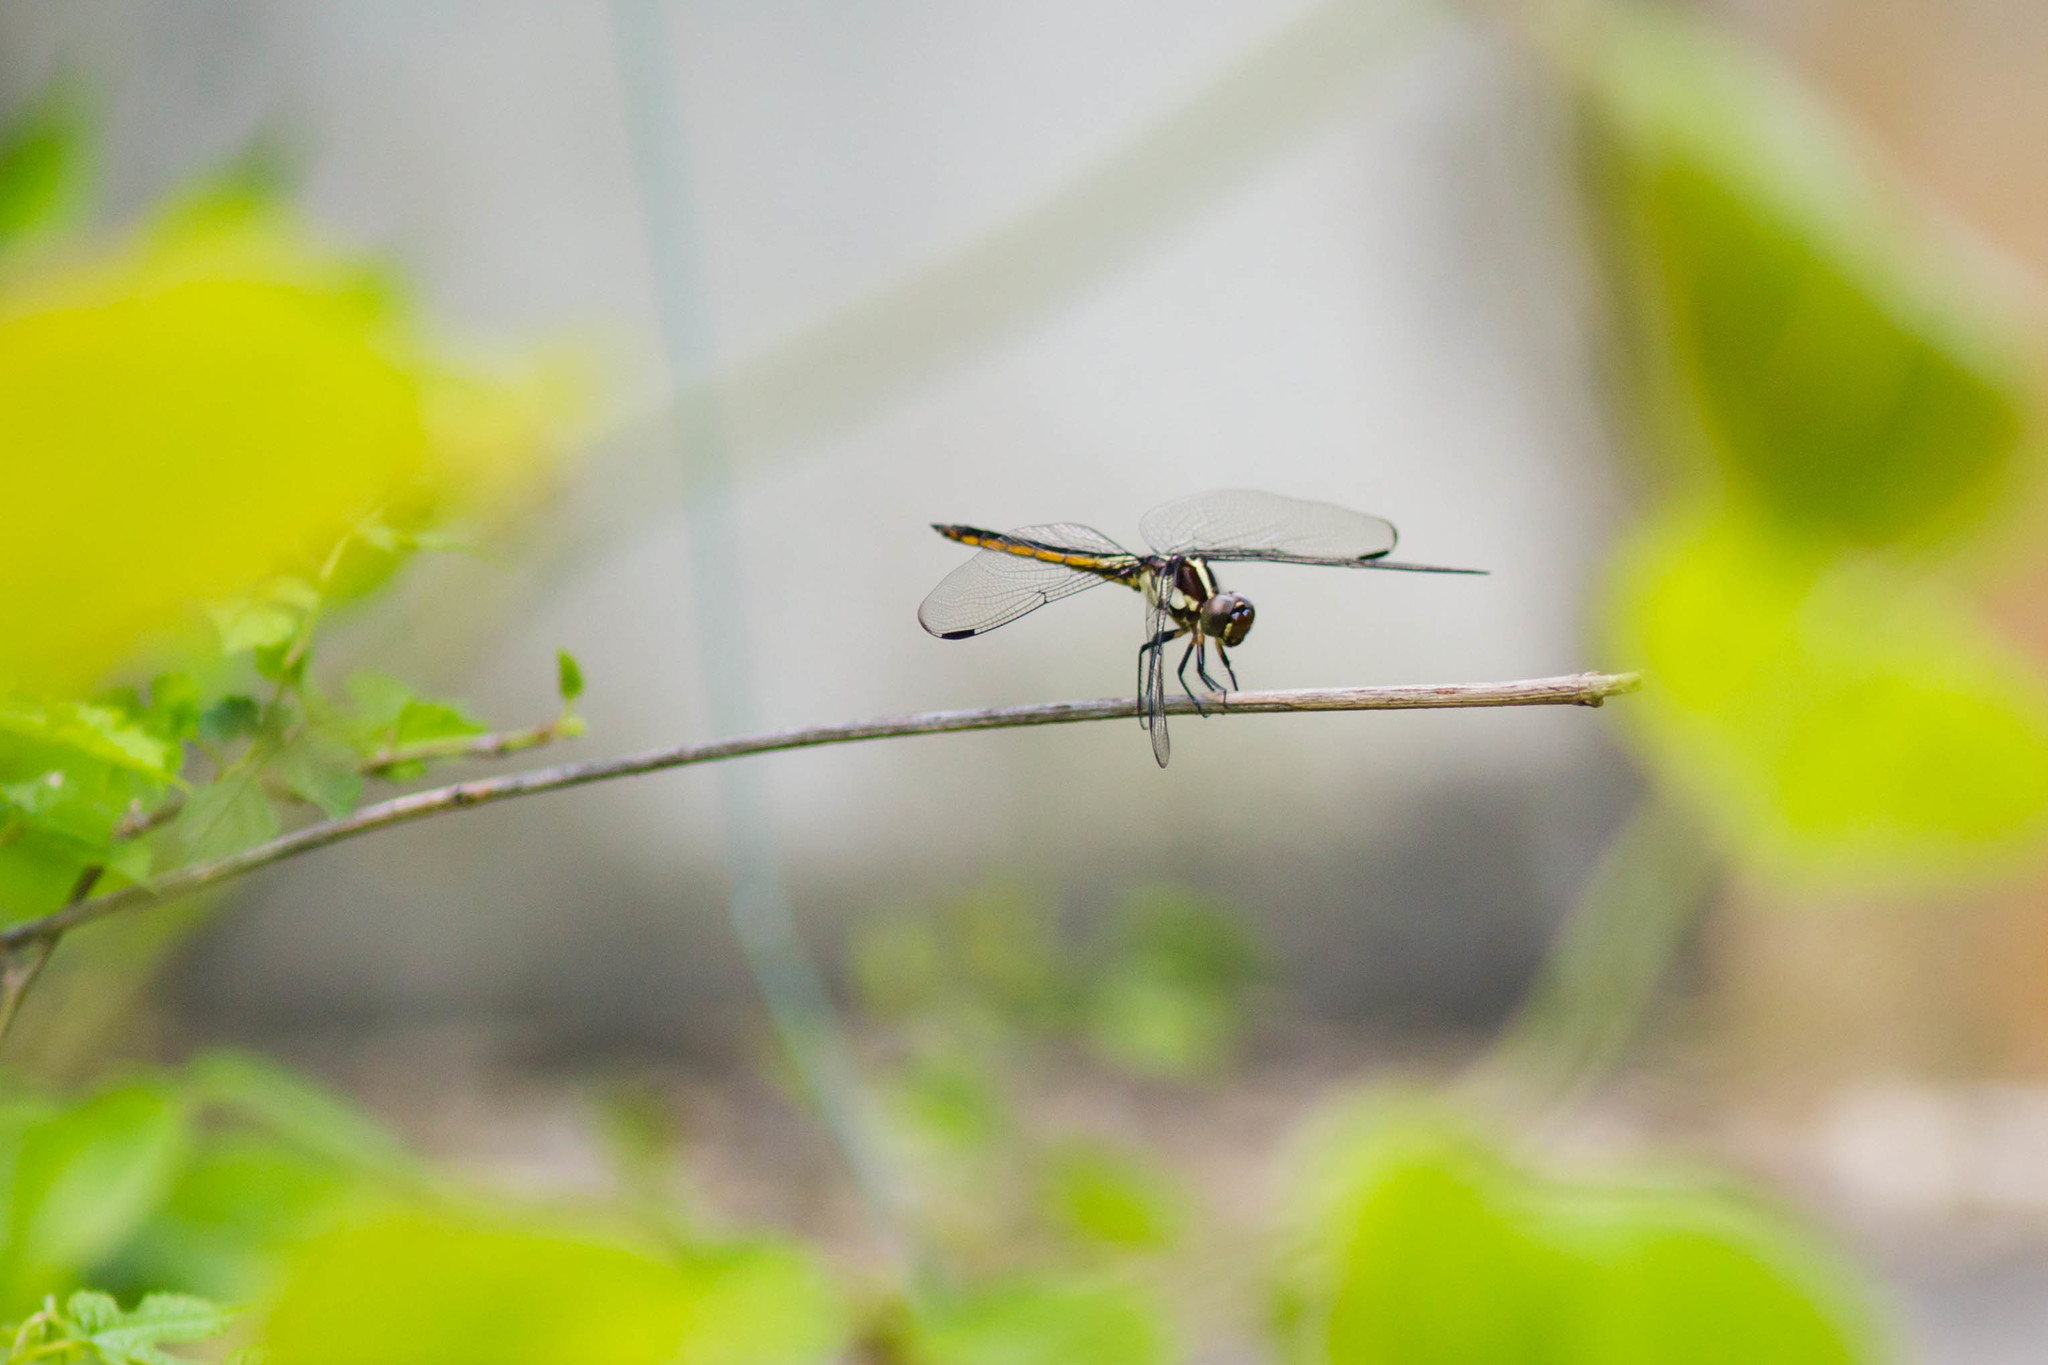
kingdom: Animalia
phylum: Arthropoda
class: Insecta
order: Odonata
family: Libellulidae
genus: Libellula
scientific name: Libellula incesta
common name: Slaty skimmer
